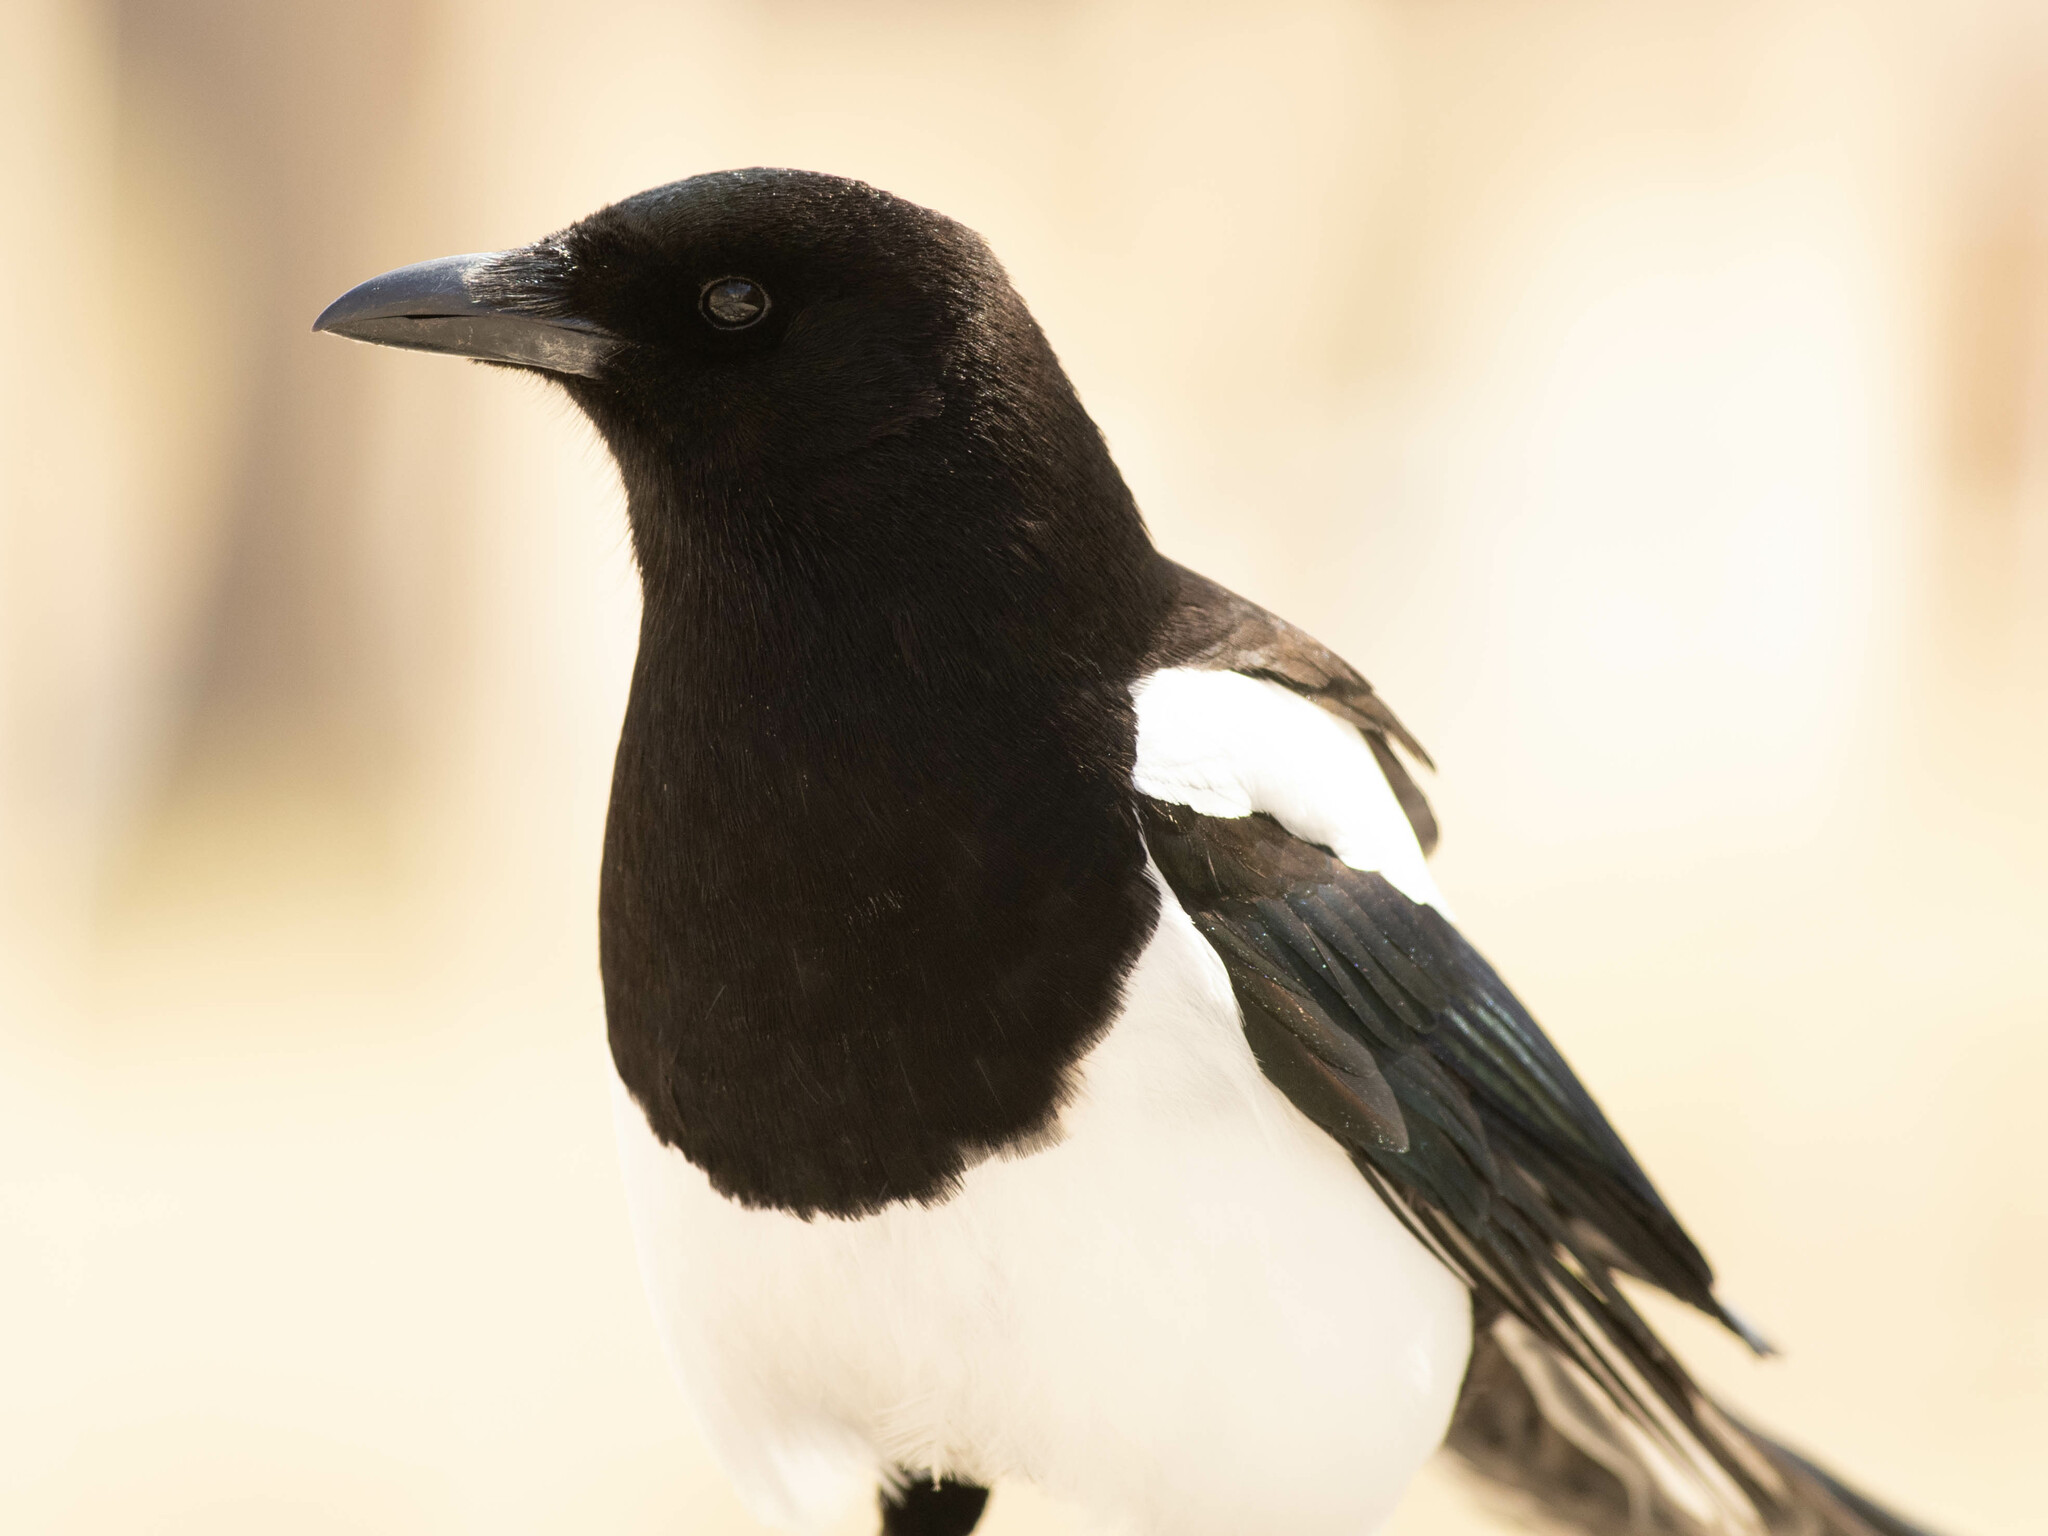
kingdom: Animalia
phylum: Chordata
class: Aves
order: Passeriformes
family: Corvidae
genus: Pica
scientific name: Pica hudsonia
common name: Black-billed magpie
